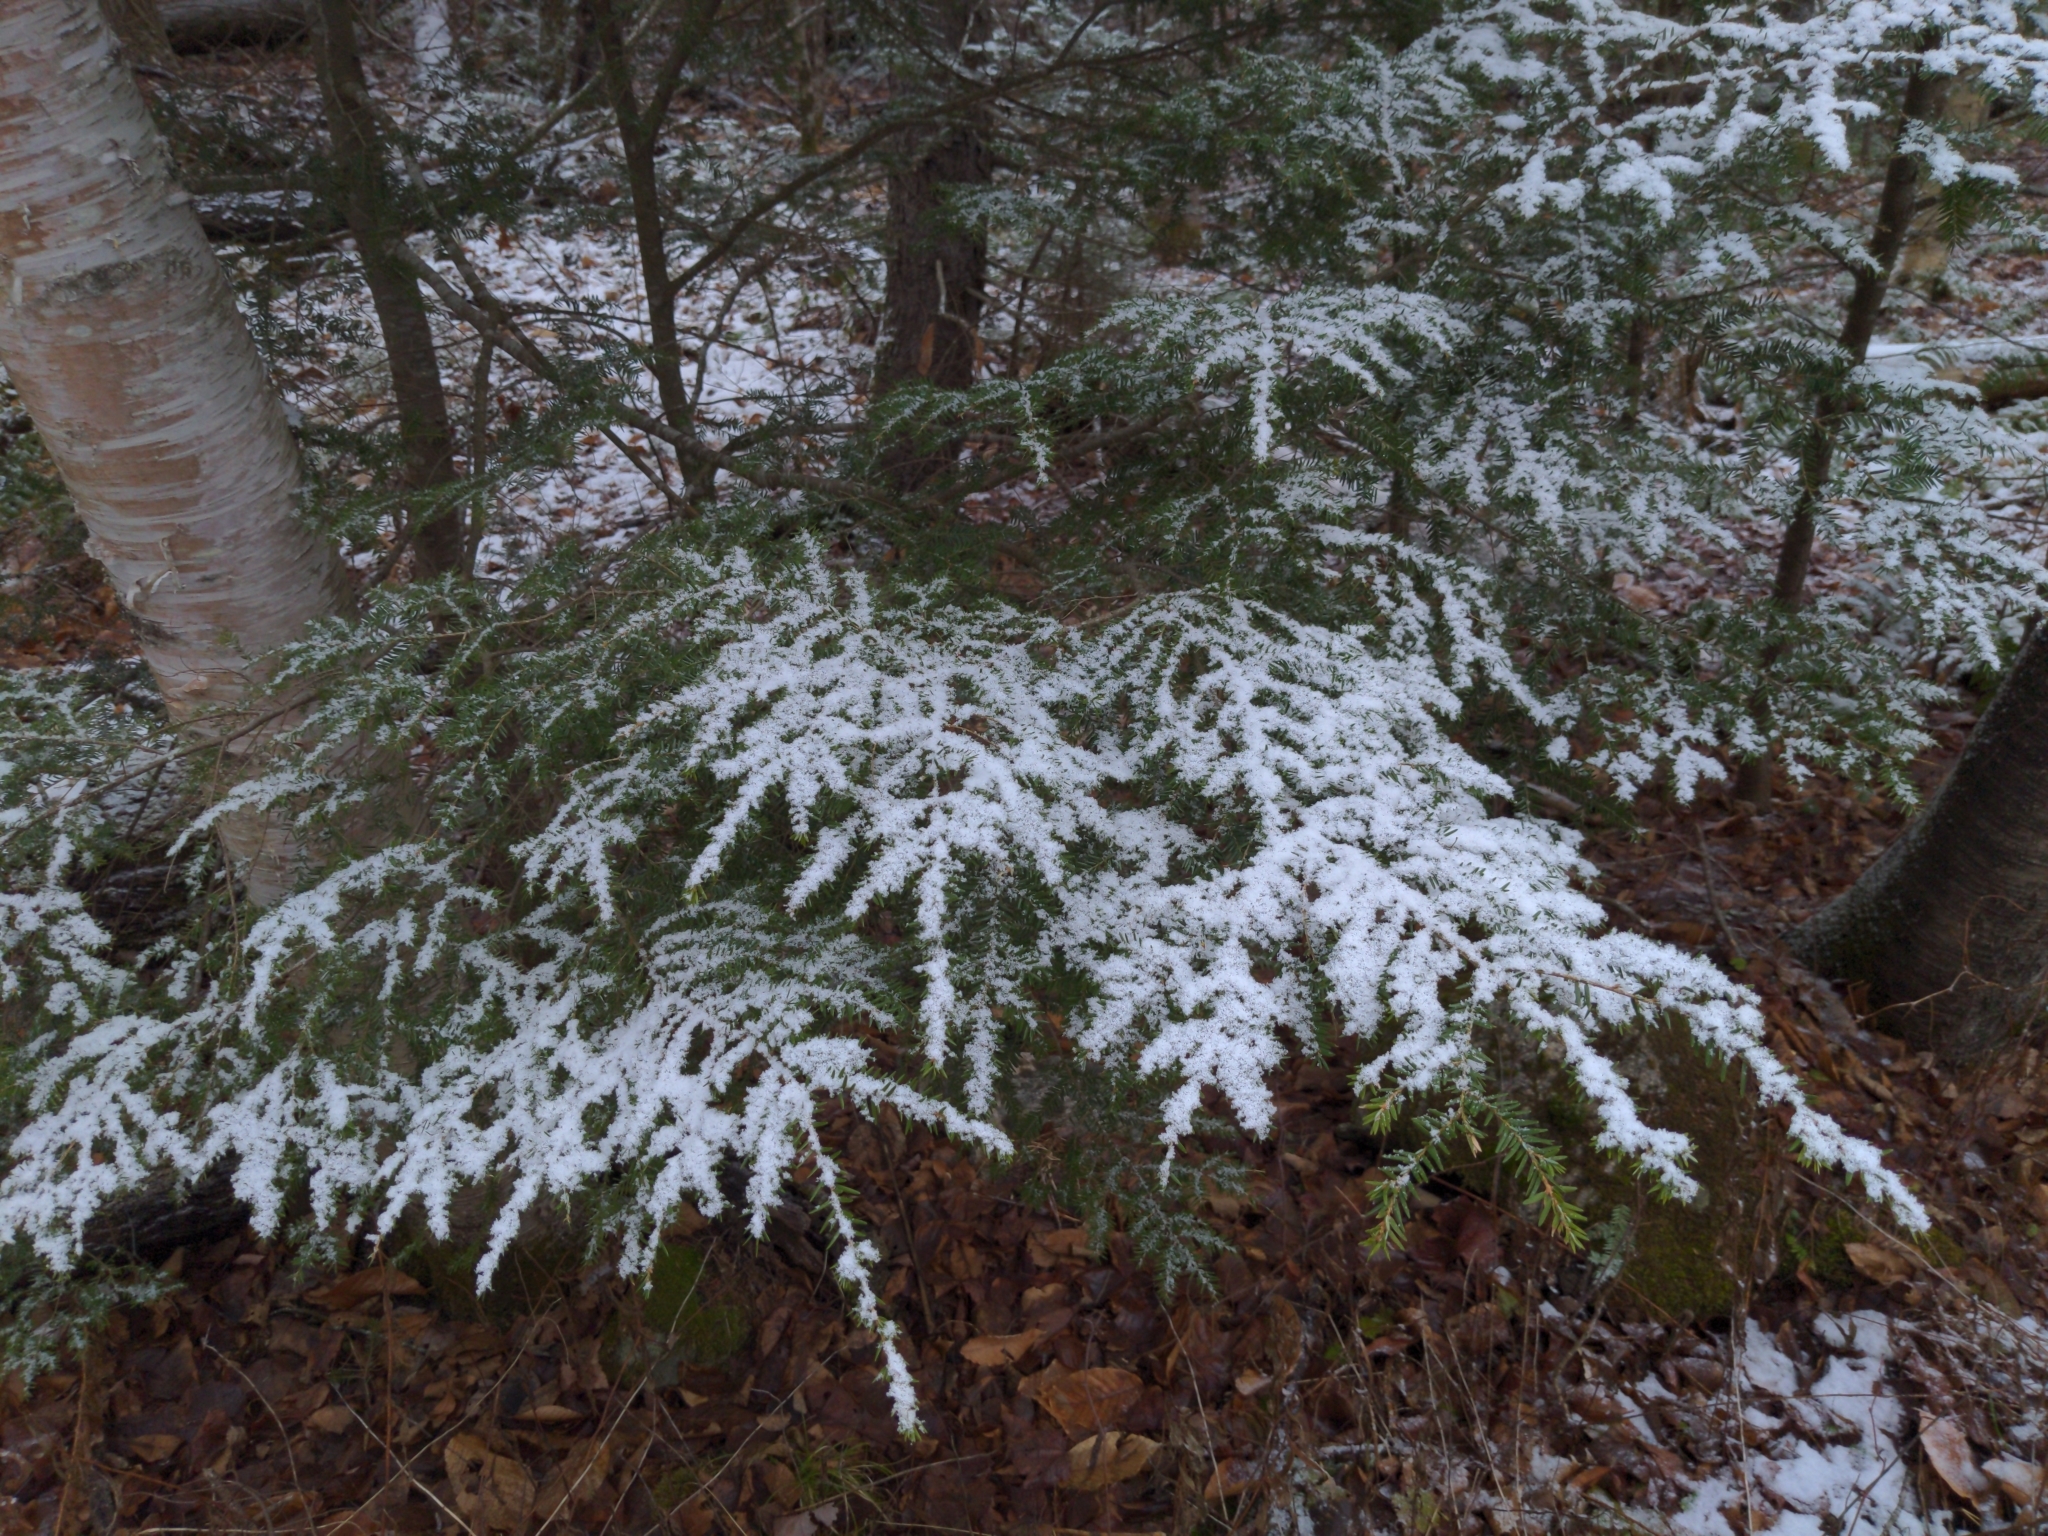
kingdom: Plantae
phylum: Tracheophyta
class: Pinopsida
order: Pinales
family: Pinaceae
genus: Tsuga
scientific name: Tsuga canadensis
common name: Eastern hemlock
